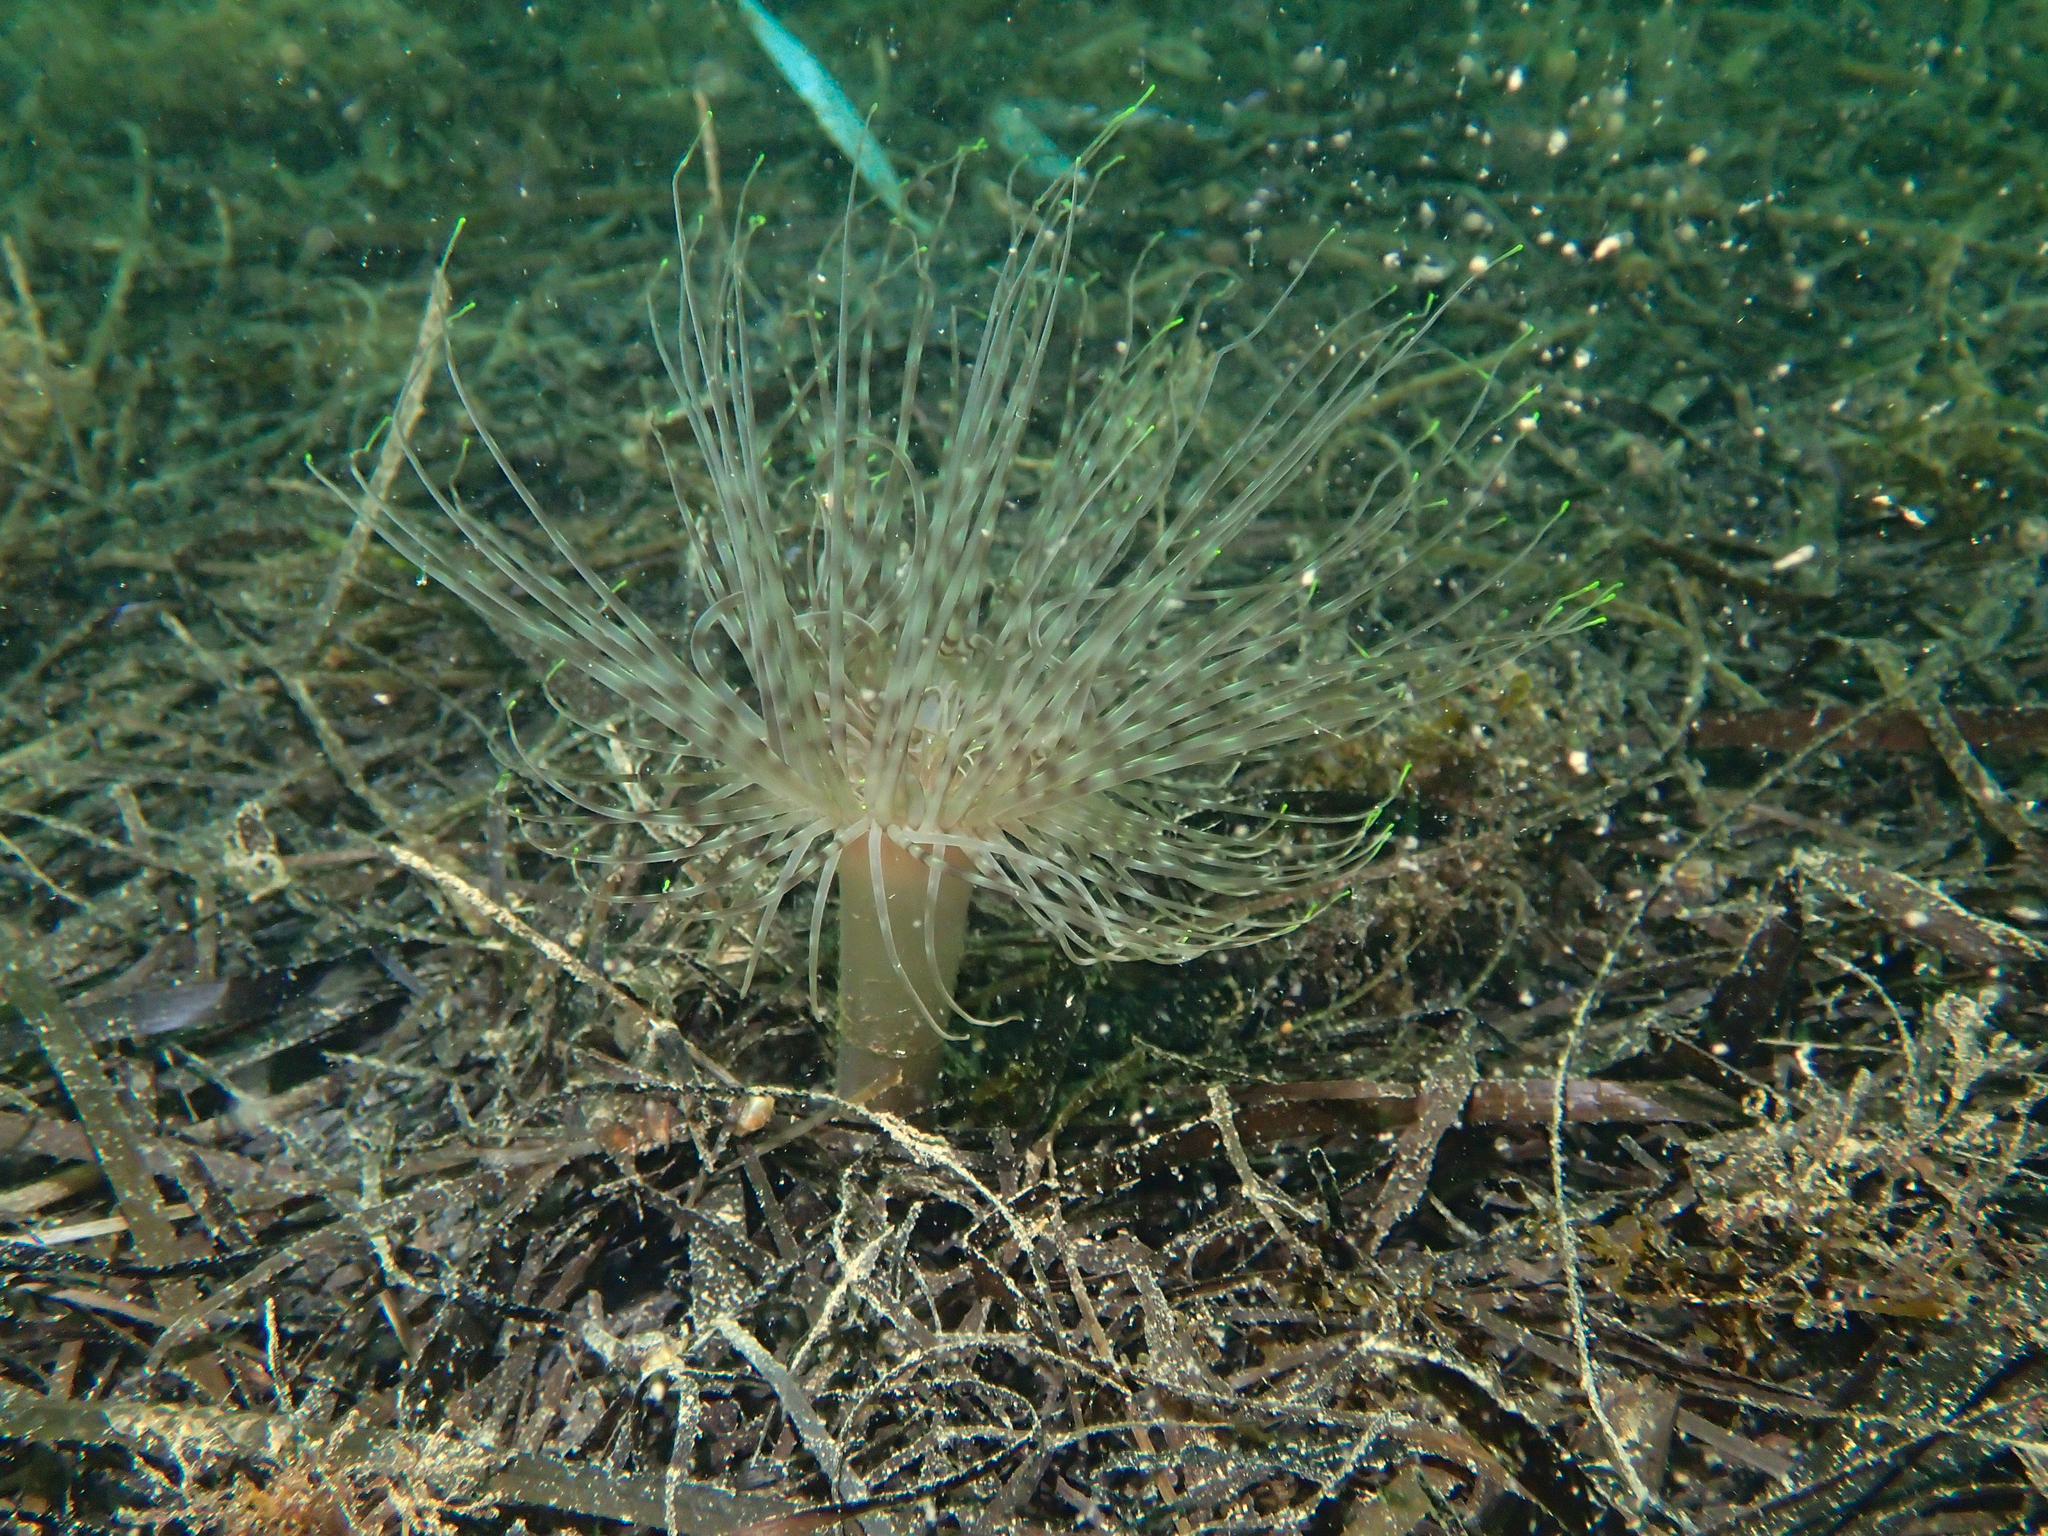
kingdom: Animalia
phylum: Cnidaria
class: Anthozoa
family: Cerianthidae
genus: Pachycerianthus
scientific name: Pachycerianthus solitarius
